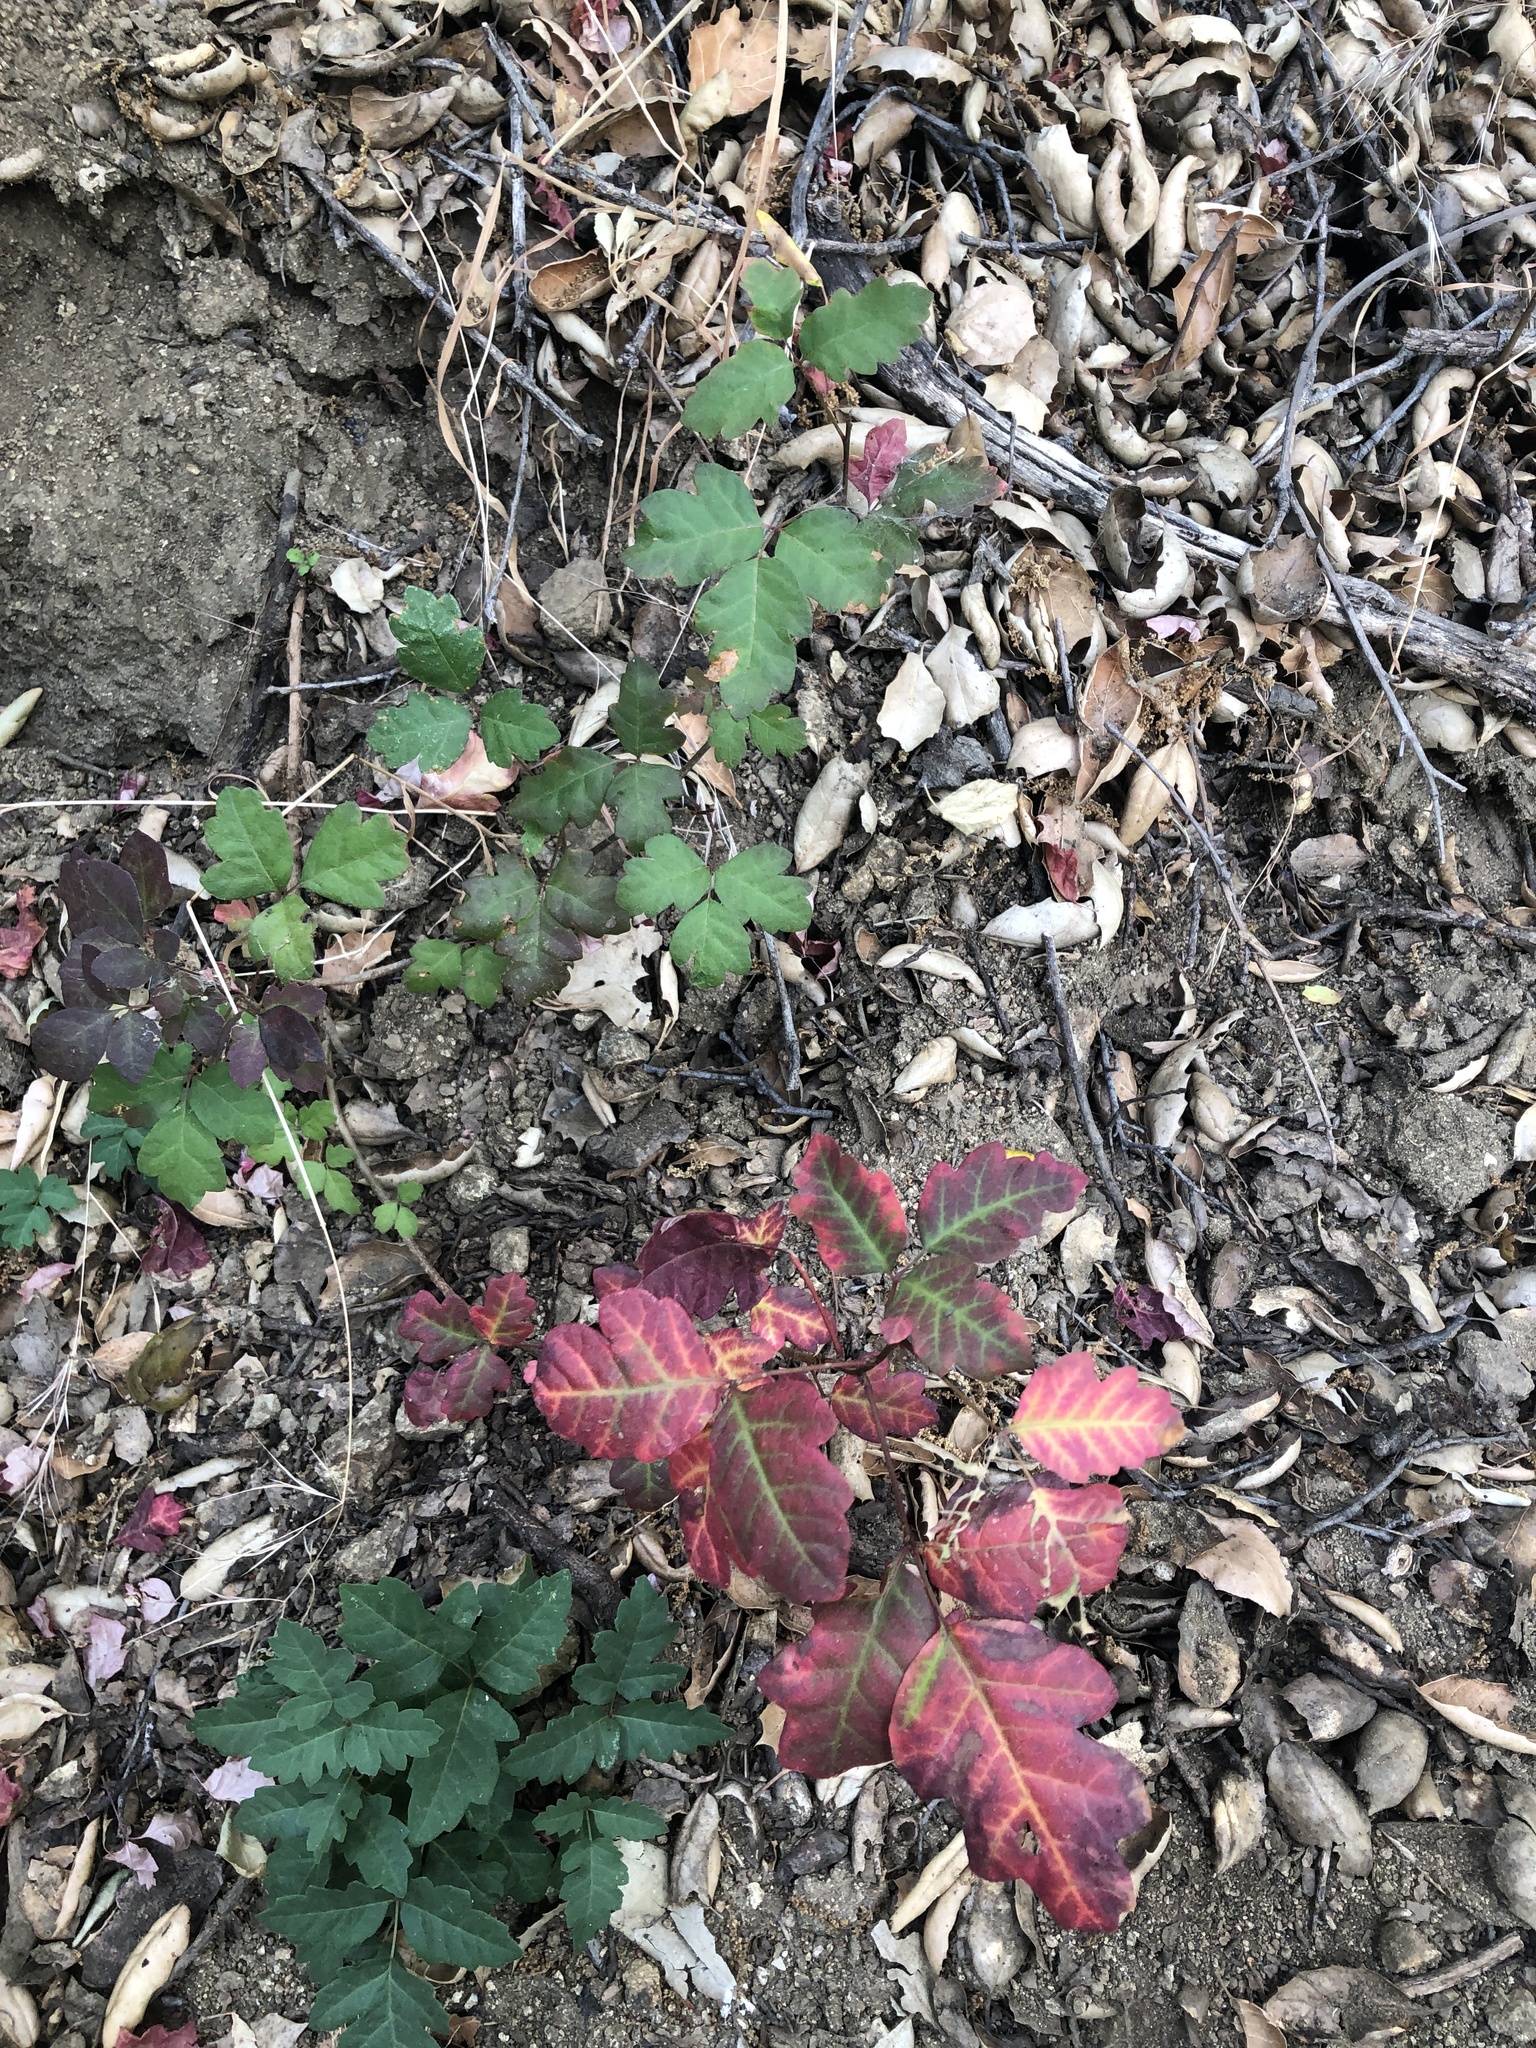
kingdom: Plantae
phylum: Tracheophyta
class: Magnoliopsida
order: Sapindales
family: Anacardiaceae
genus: Toxicodendron
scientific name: Toxicodendron diversilobum
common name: Pacific poison-oak
